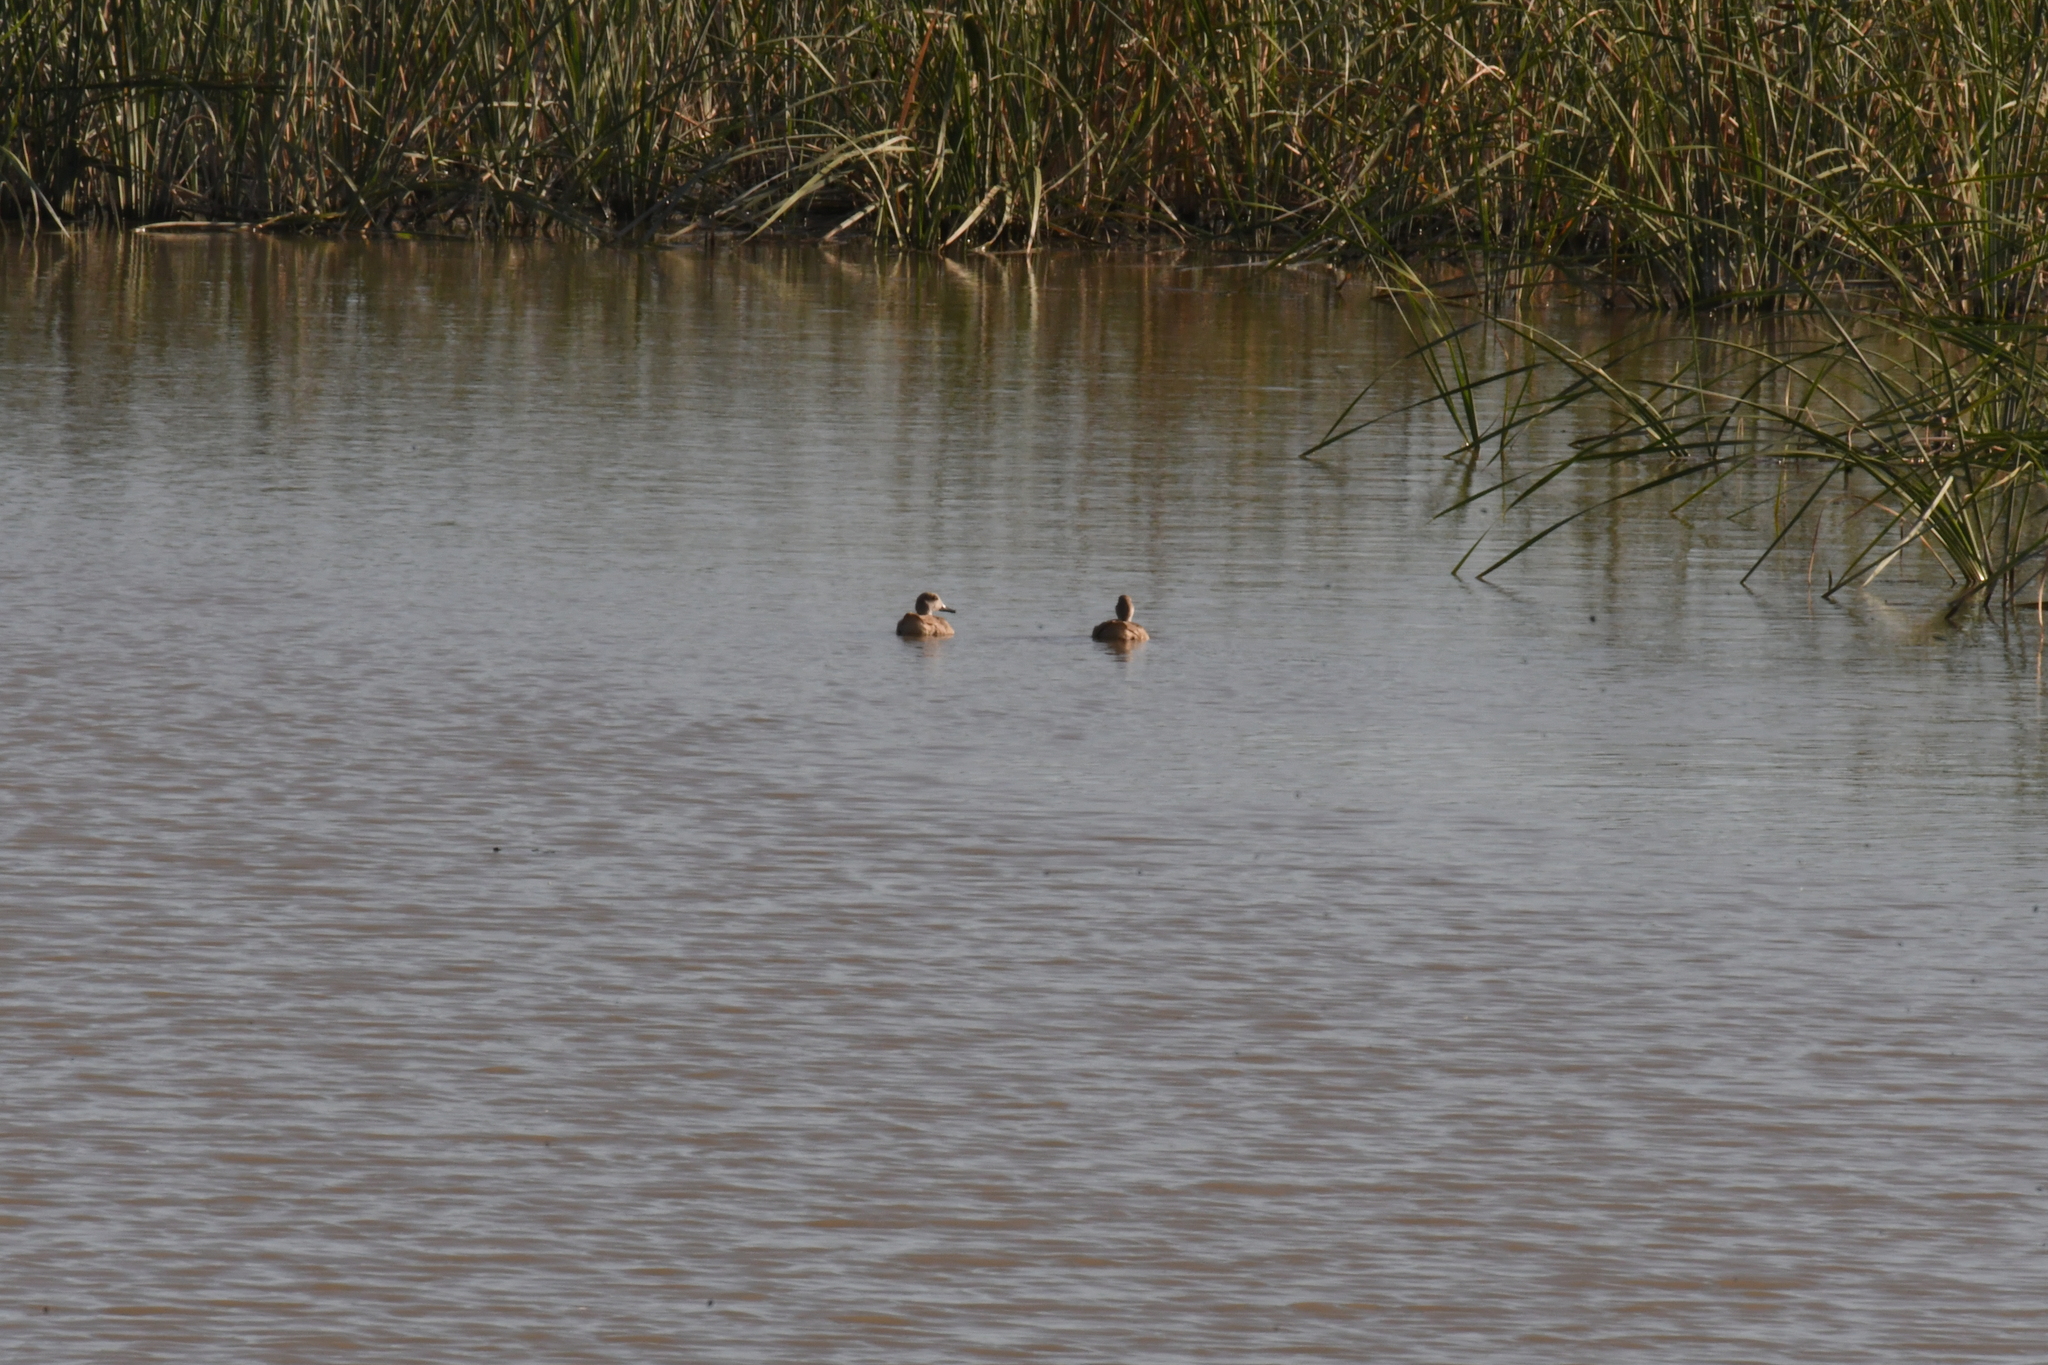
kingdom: Animalia
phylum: Chordata
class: Aves
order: Anseriformes
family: Anatidae
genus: Marmaronetta
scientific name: Marmaronetta angustirostris
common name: Marbled duck
